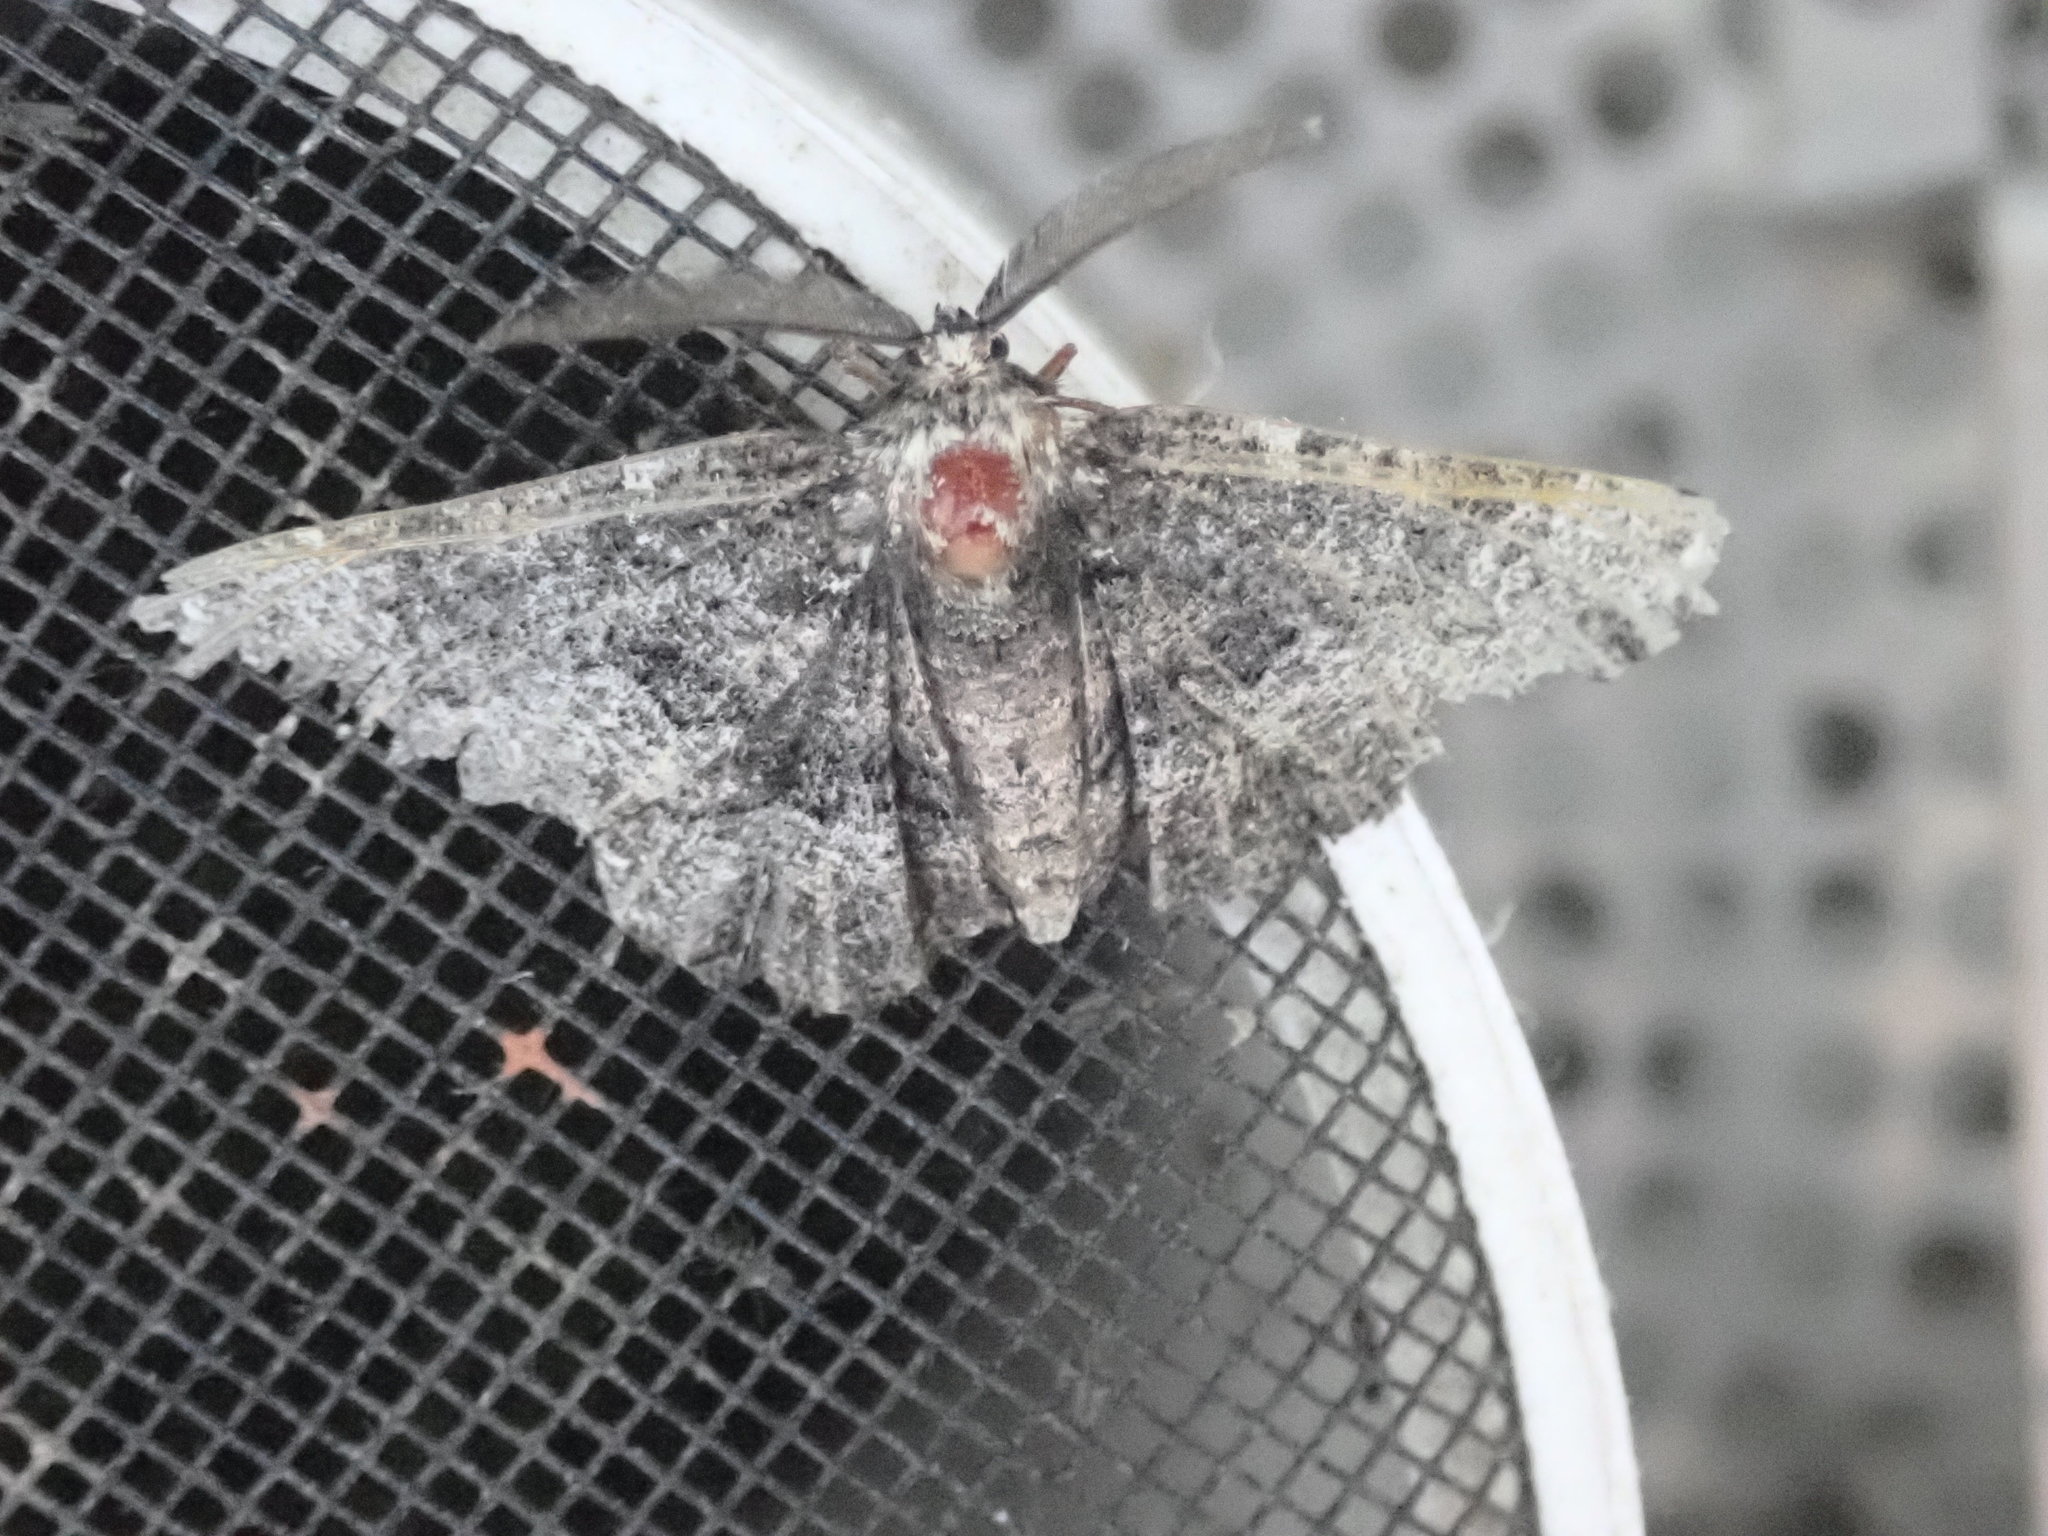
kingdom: Animalia
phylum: Arthropoda
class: Insecta
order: Lepidoptera
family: Geometridae
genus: Phaeoura
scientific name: Phaeoura quernaria
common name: Oak beauty
